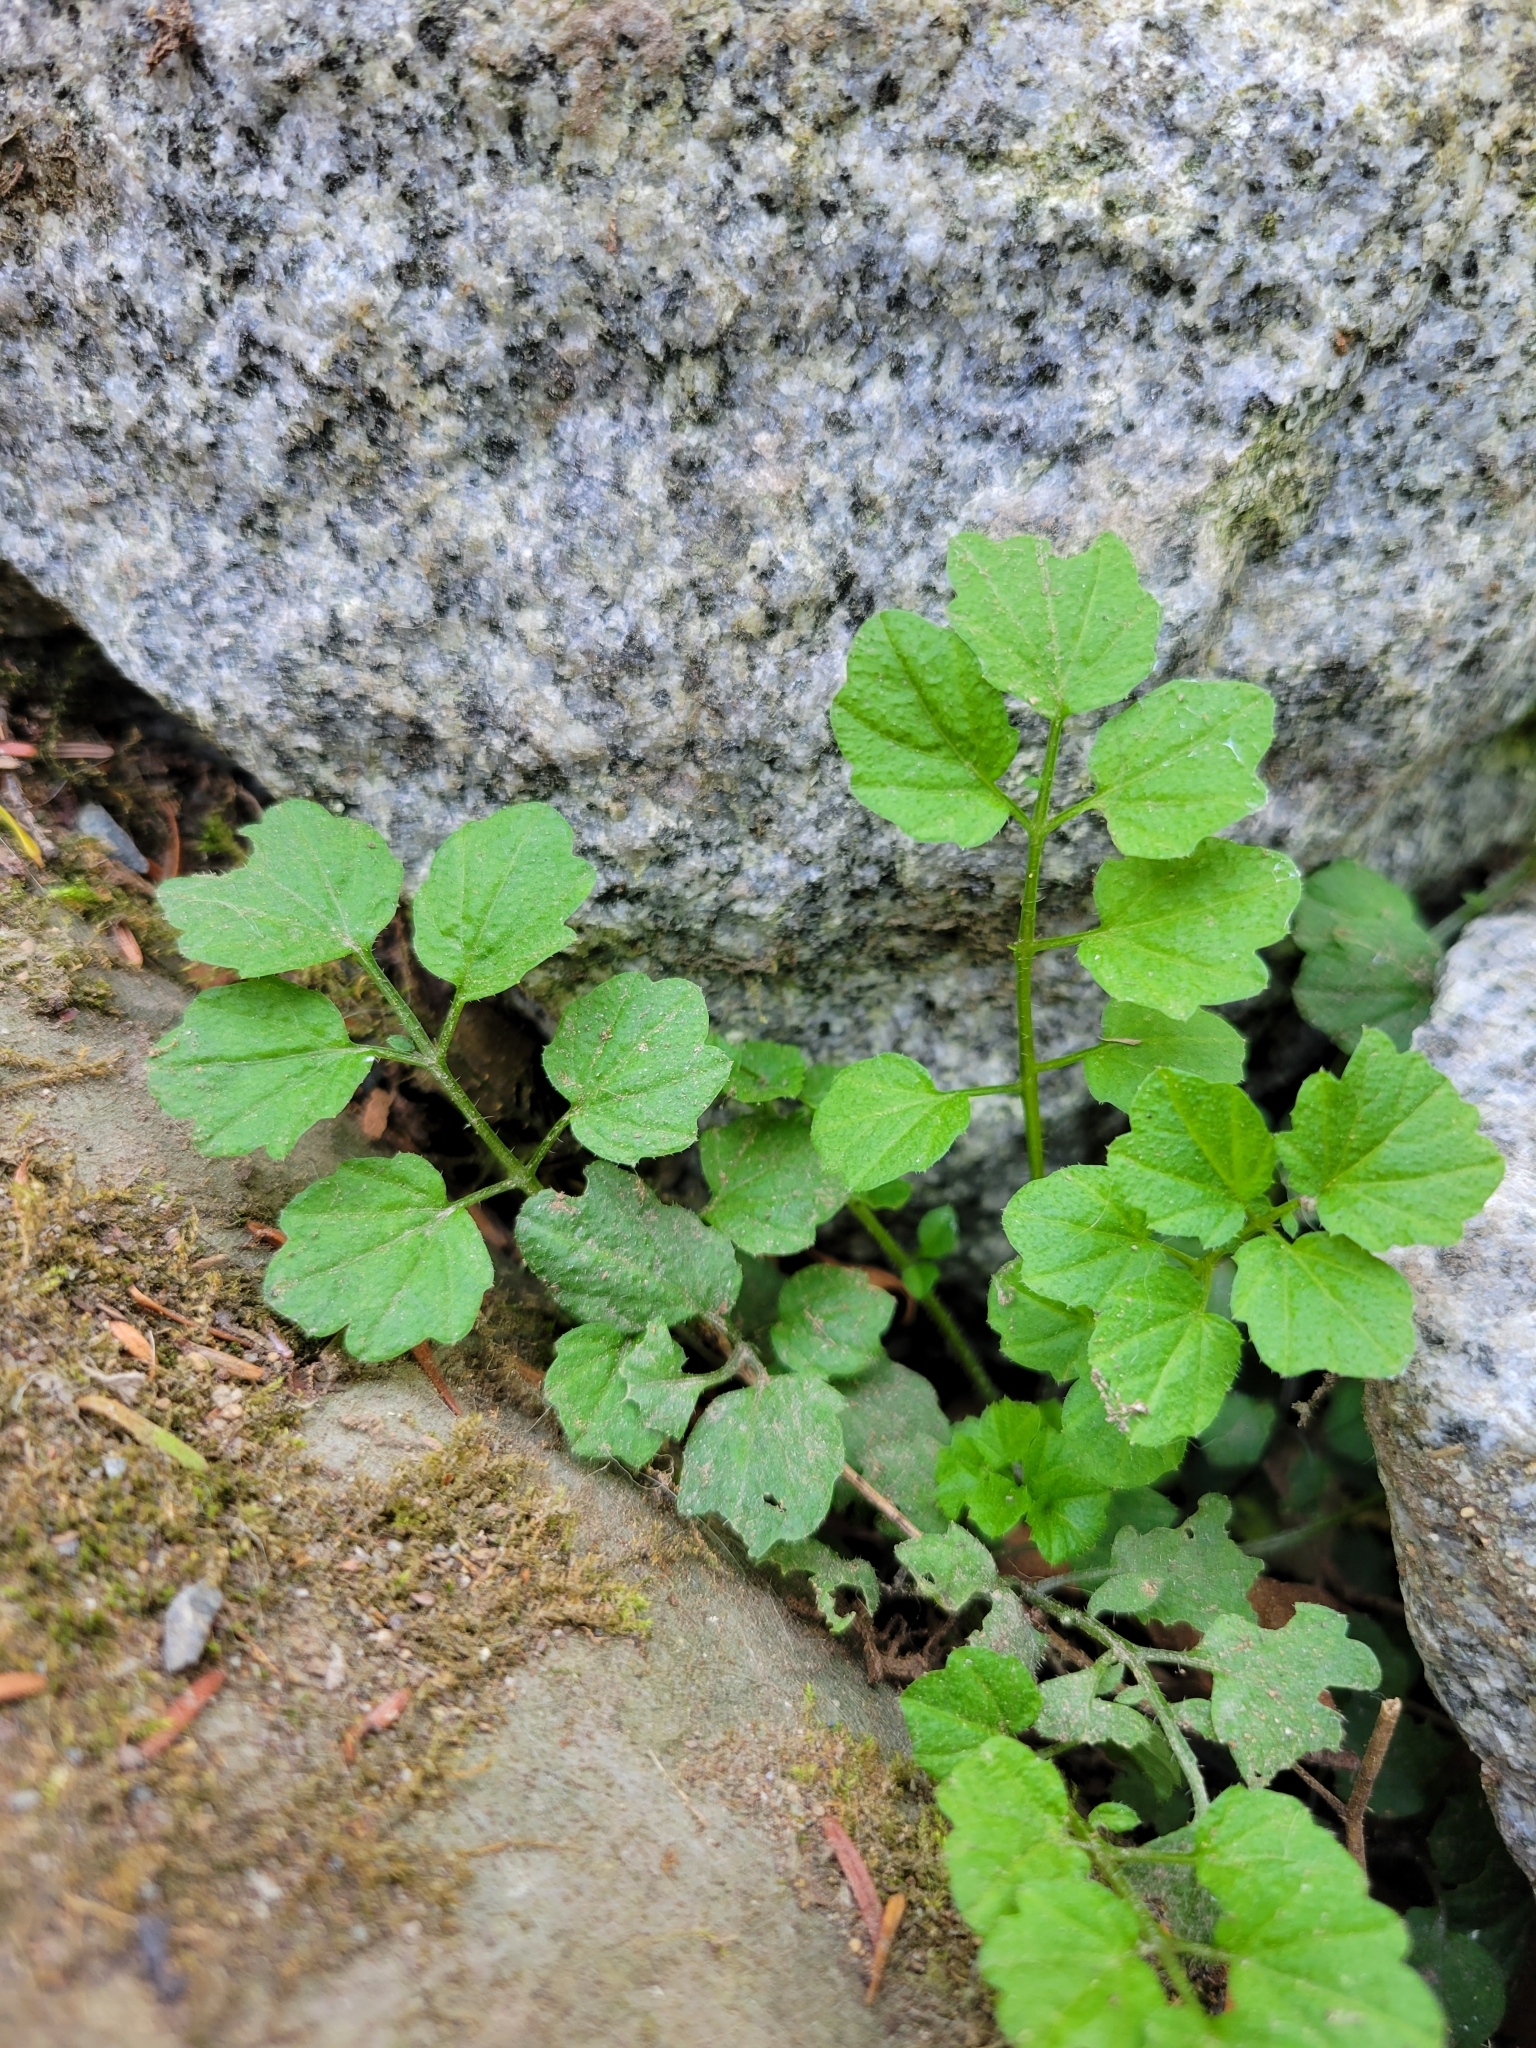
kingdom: Plantae
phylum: Tracheophyta
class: Magnoliopsida
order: Brassicales
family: Brassicaceae
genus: Cardamine
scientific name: Cardamine flexuosa
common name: Woodland bittercress
